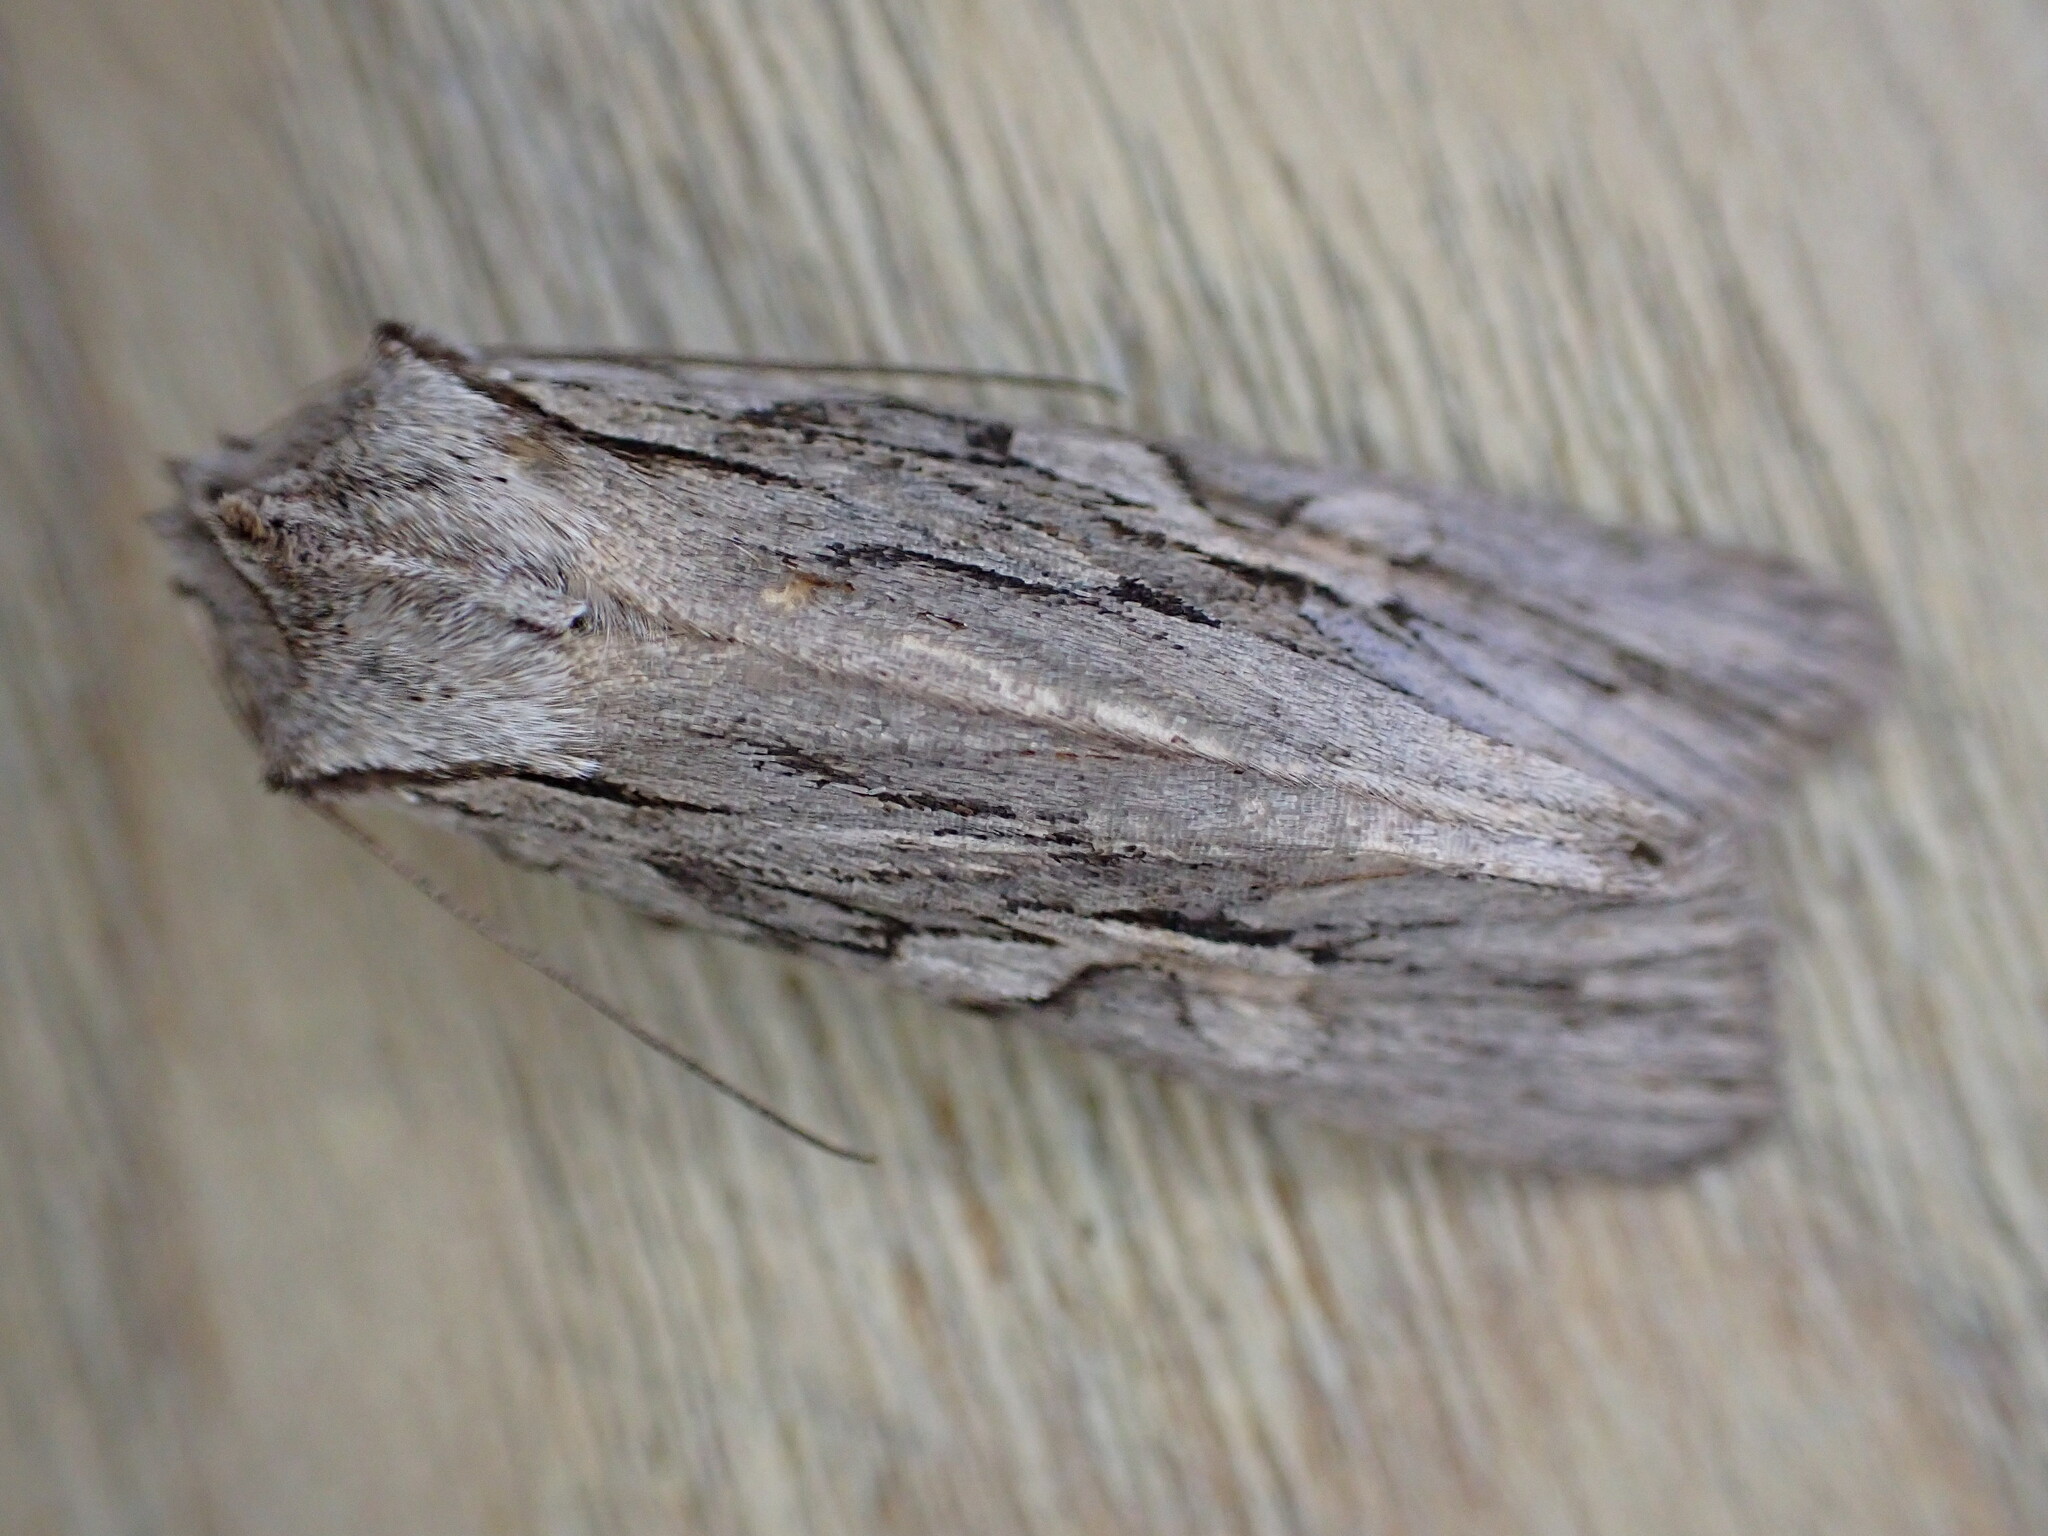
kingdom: Animalia
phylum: Arthropoda
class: Insecta
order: Lepidoptera
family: Noctuidae
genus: Lithophane
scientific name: Lithophane leautieri
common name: Blair's shoulder-knot
